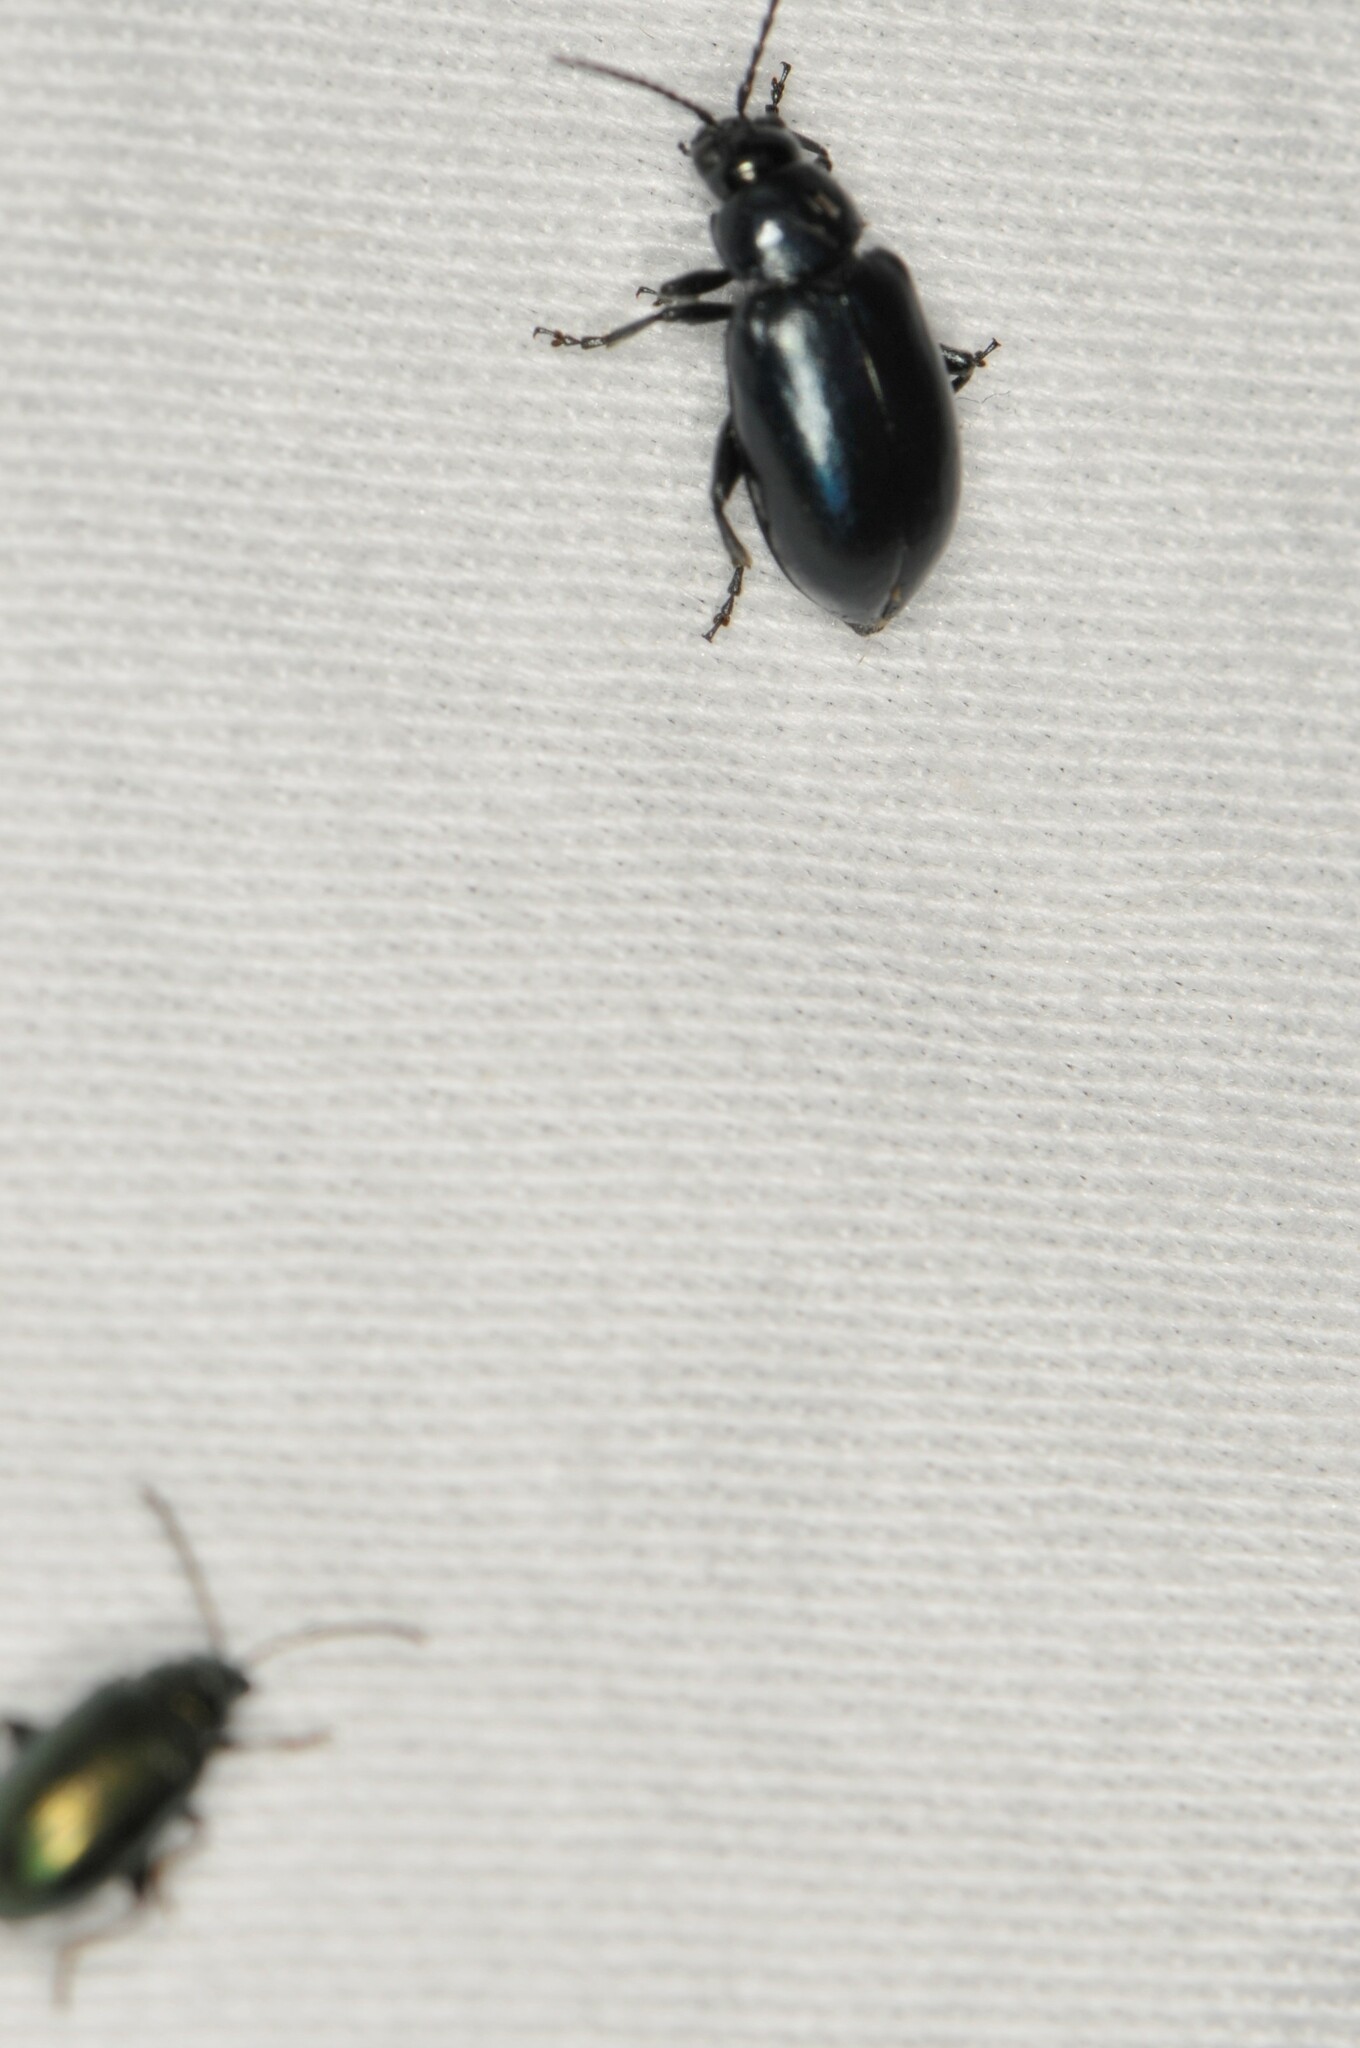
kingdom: Animalia
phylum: Arthropoda
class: Insecta
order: Coleoptera
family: Chrysomelidae
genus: Alticini
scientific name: Alticini
